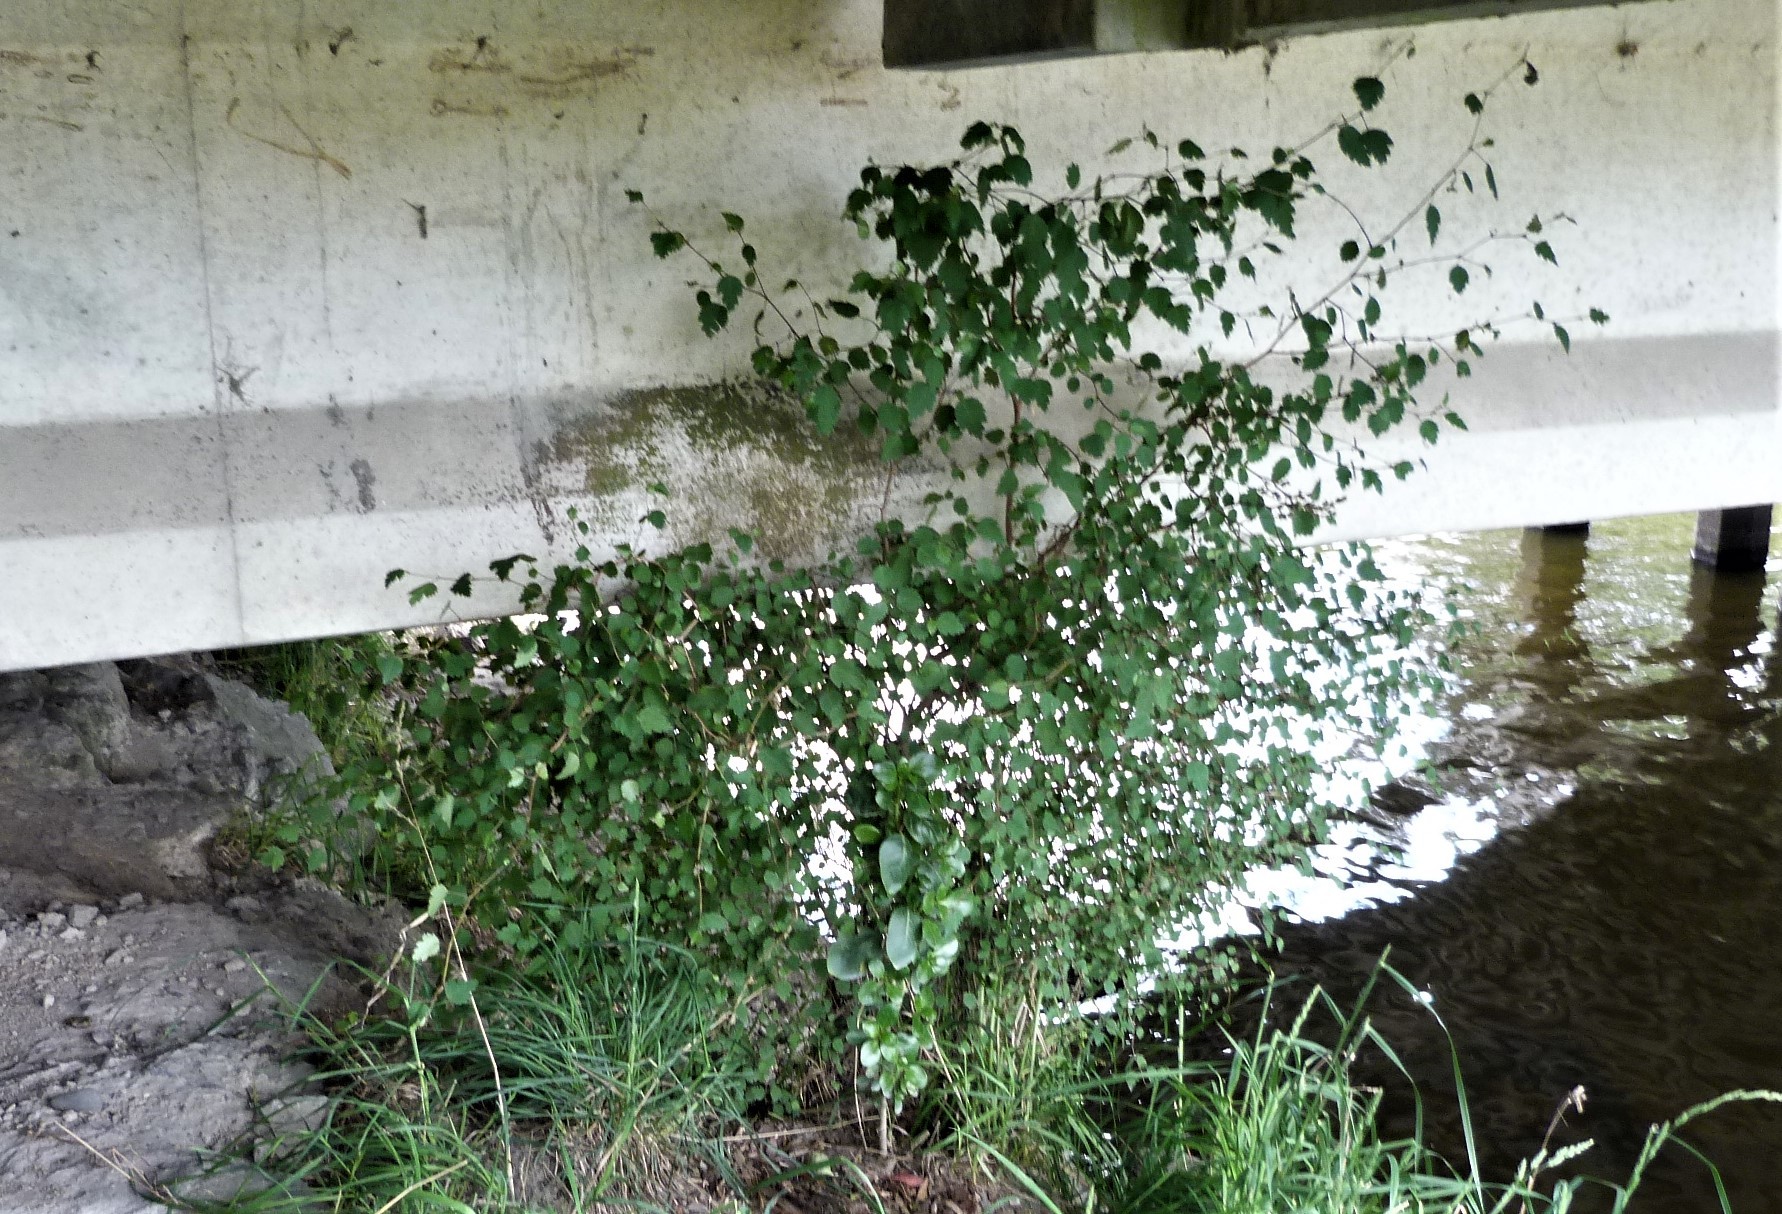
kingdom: Plantae
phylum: Tracheophyta
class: Magnoliopsida
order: Malvales
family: Malvaceae
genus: Plagianthus
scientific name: Plagianthus regius
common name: Manatu
